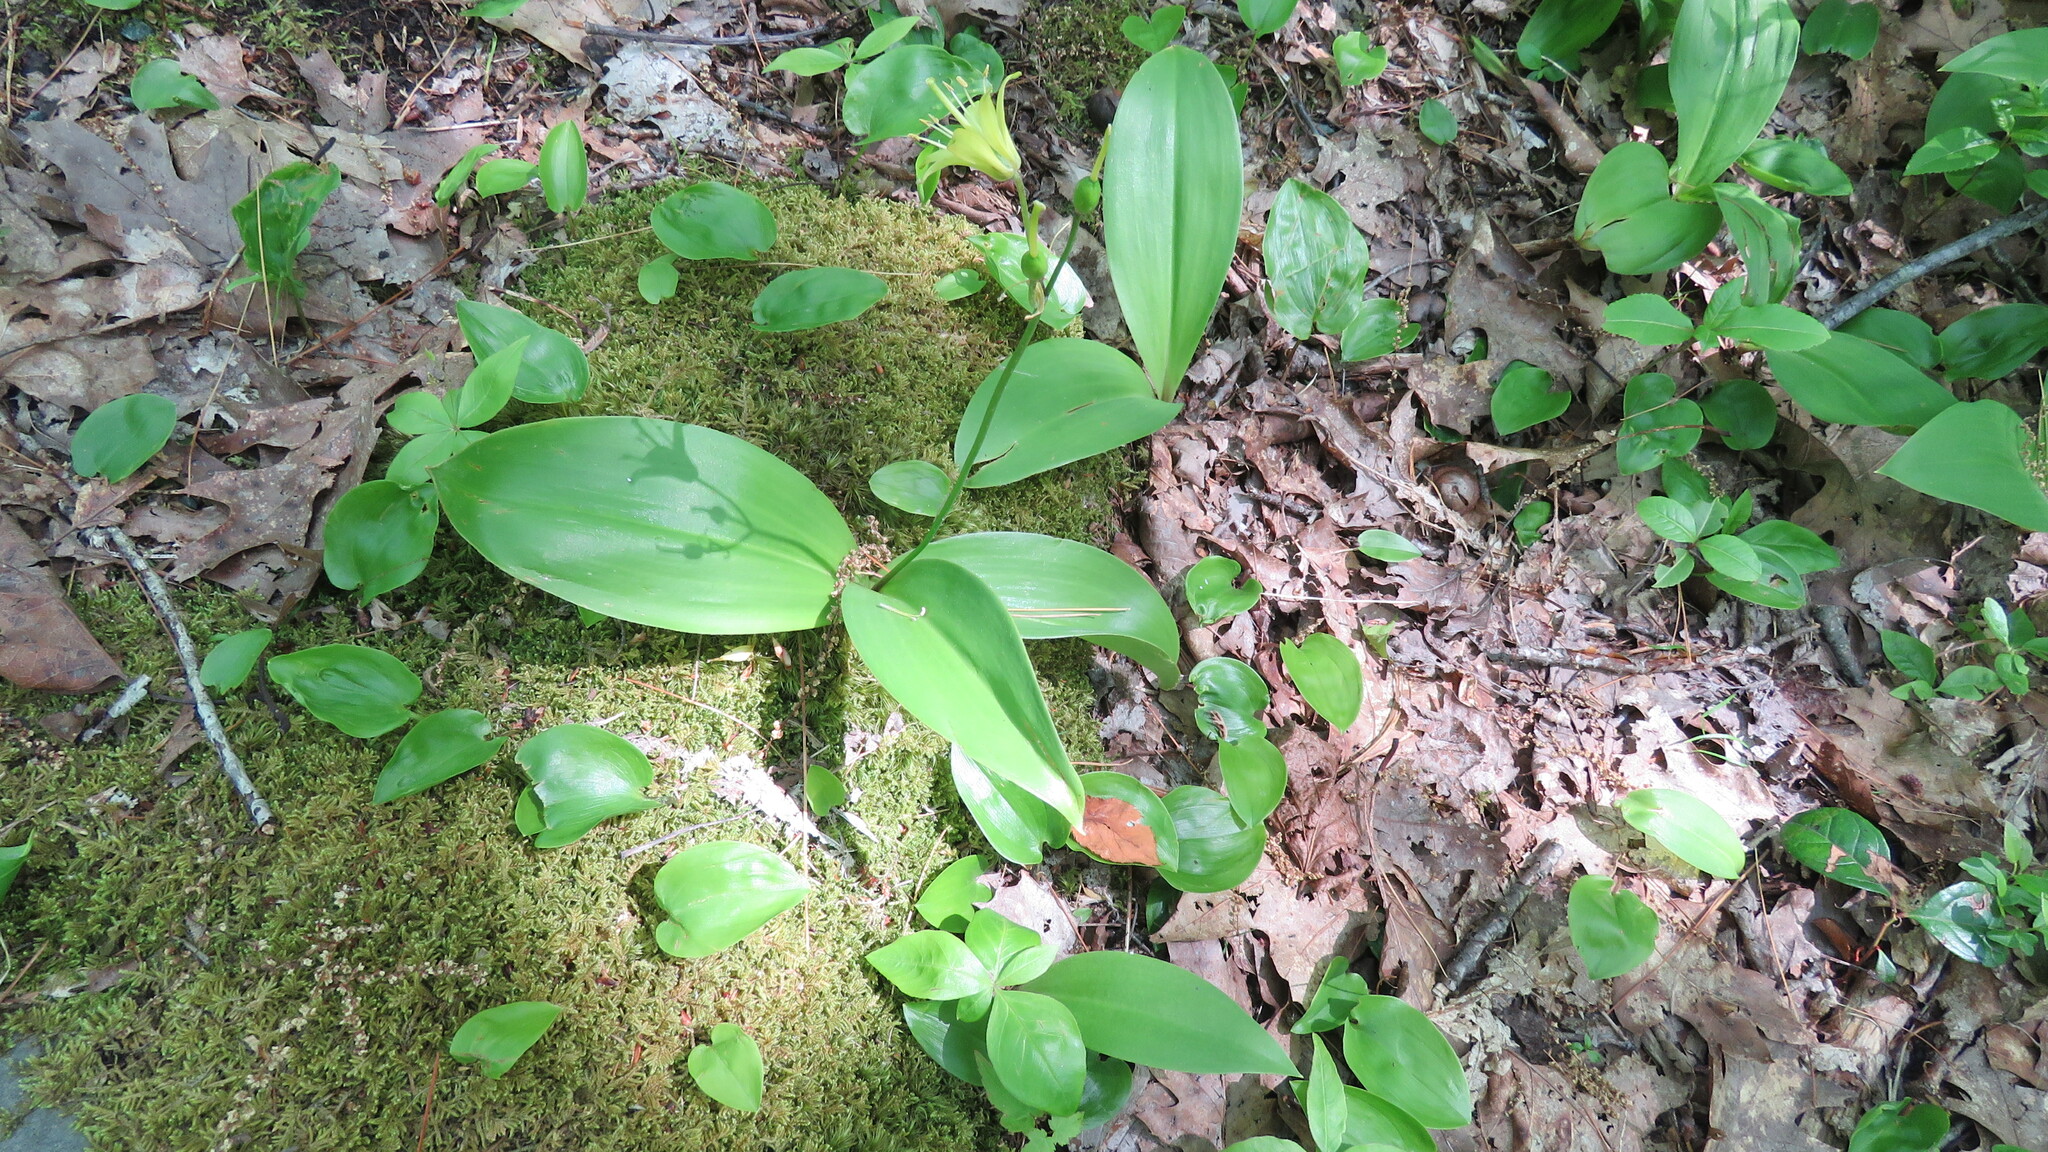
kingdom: Plantae
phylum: Tracheophyta
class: Liliopsida
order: Liliales
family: Liliaceae
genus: Clintonia
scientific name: Clintonia borealis
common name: Yellow clintonia
